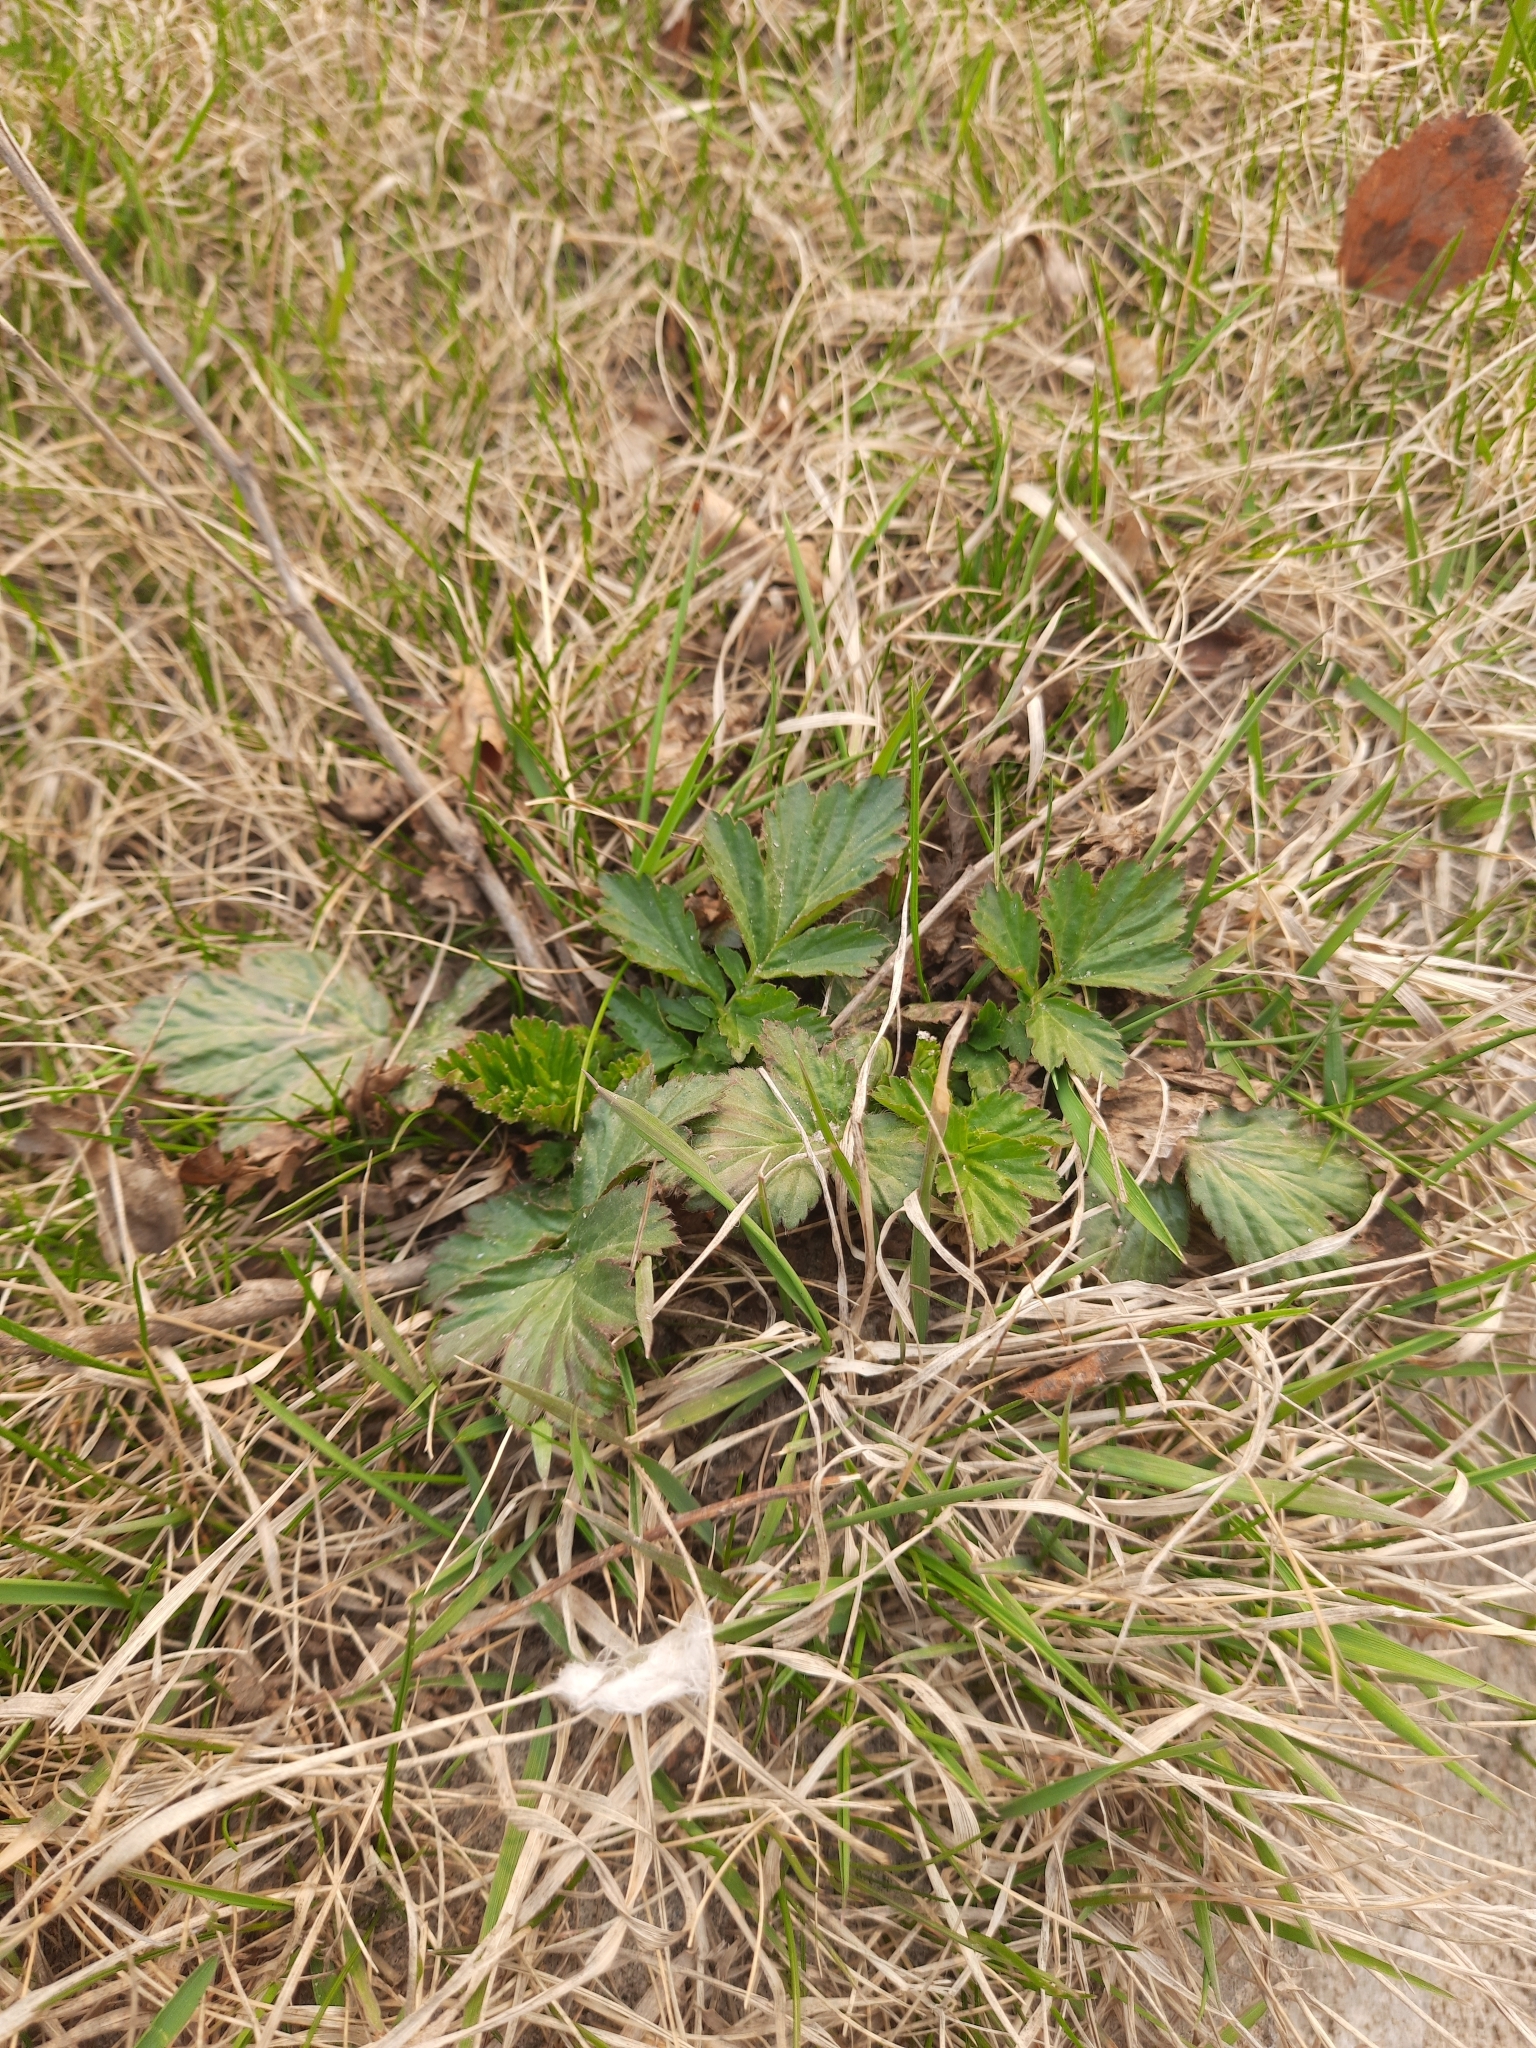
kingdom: Plantae
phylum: Tracheophyta
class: Magnoliopsida
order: Rosales
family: Rosaceae
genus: Geum
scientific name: Geum aleppicum
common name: Yellow avens
